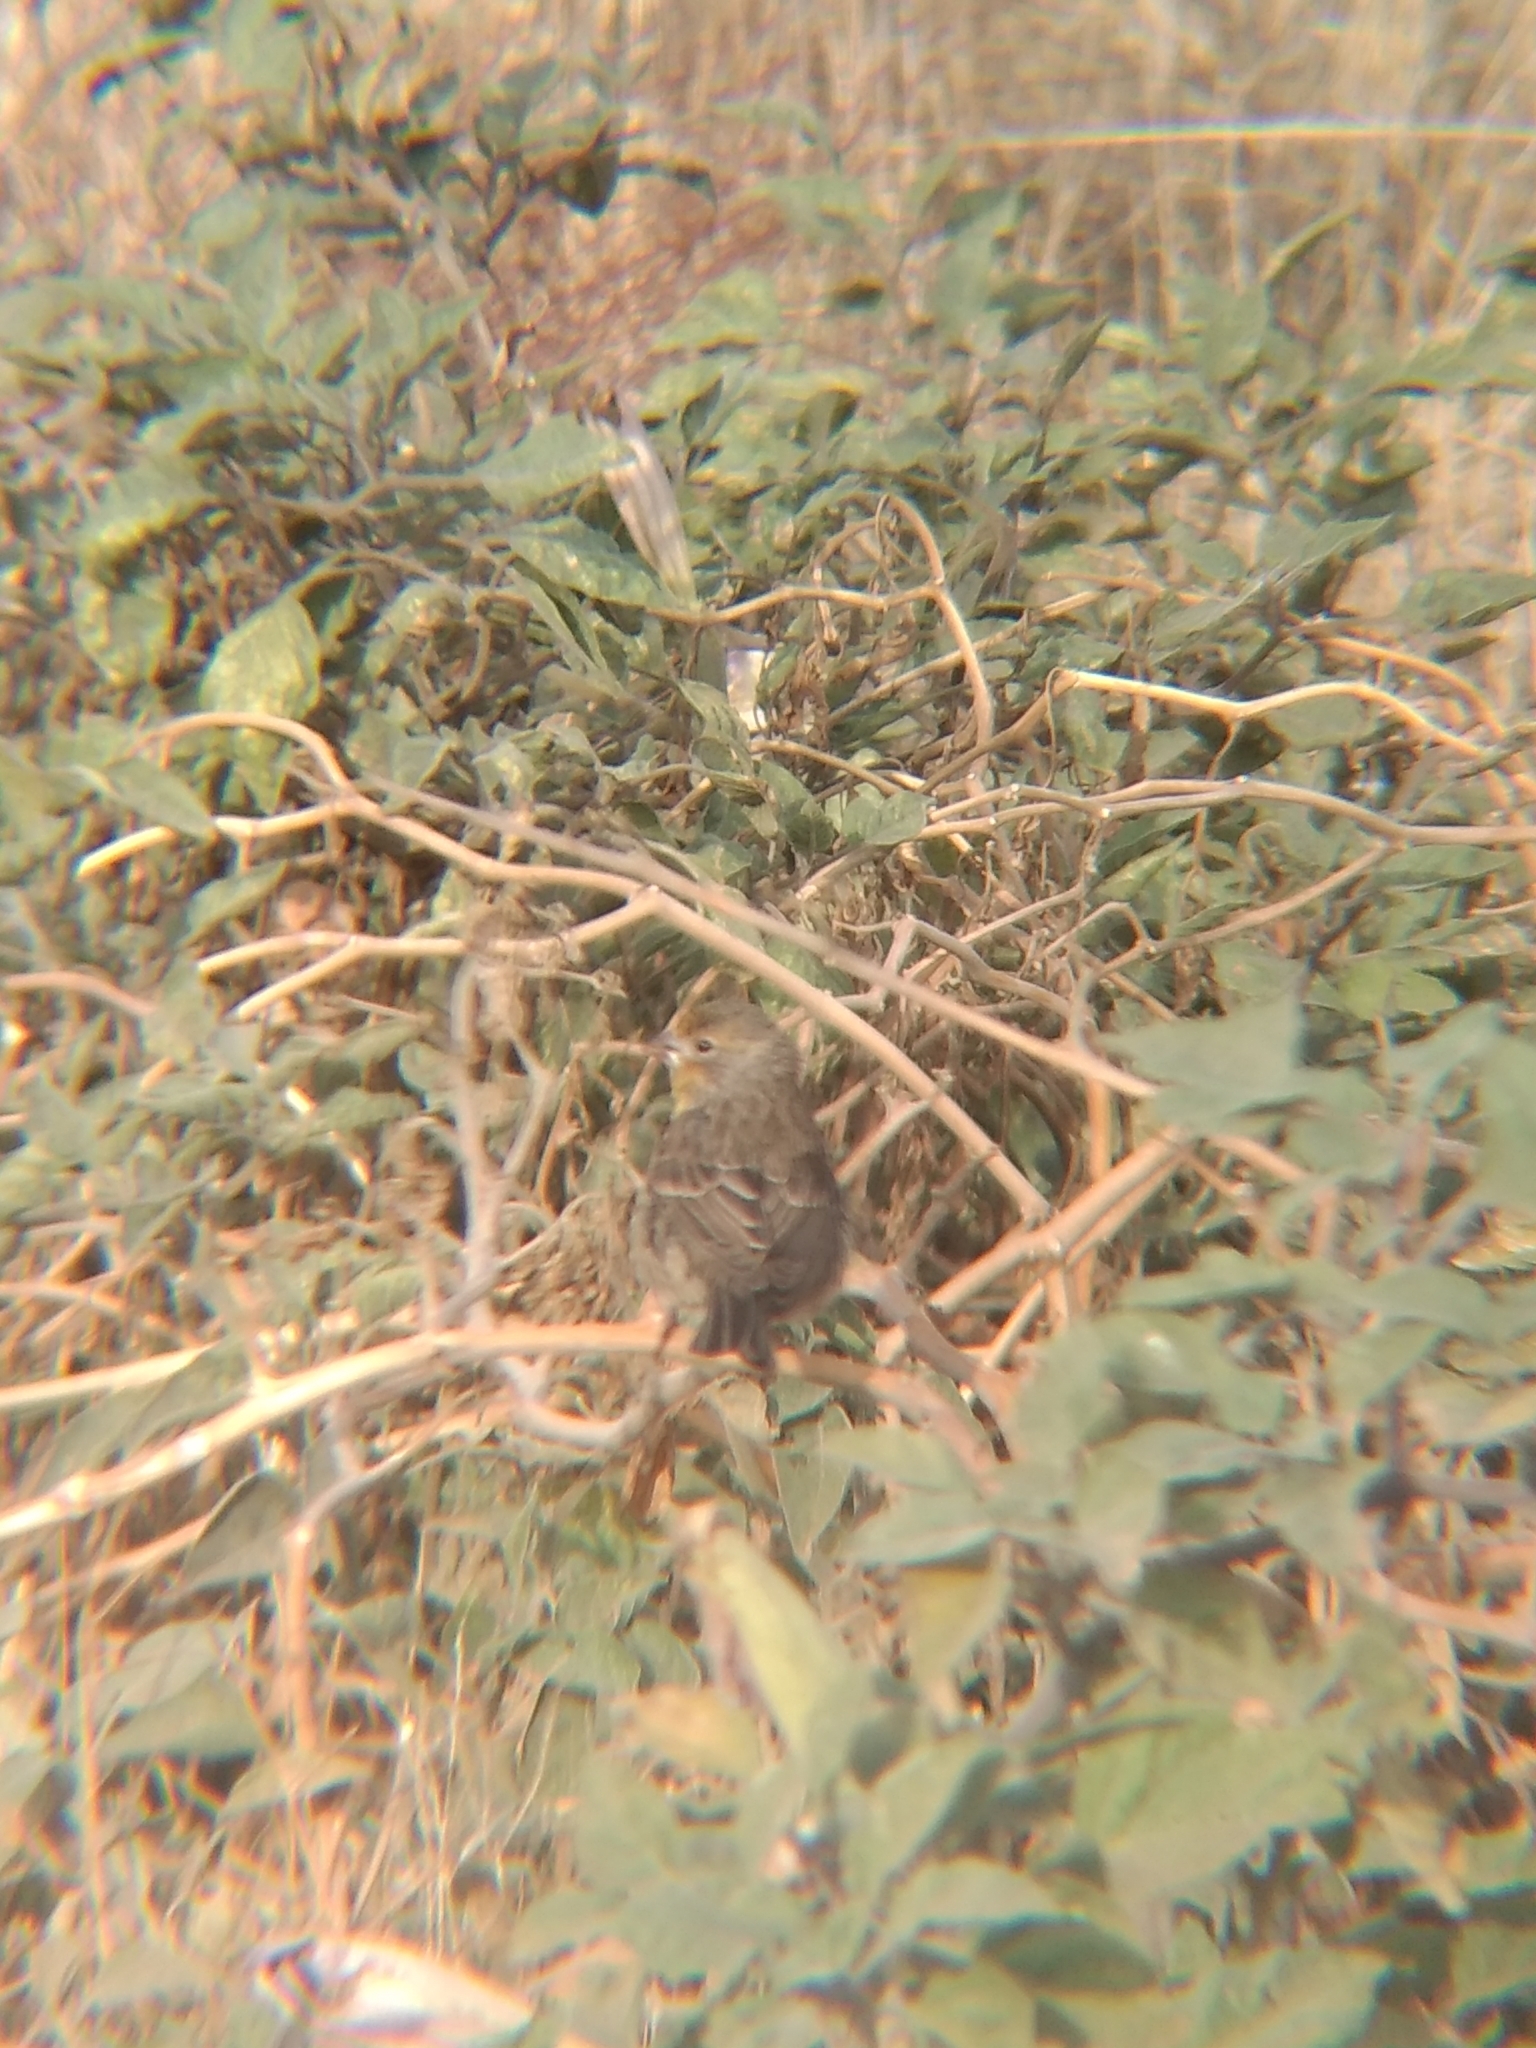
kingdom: Animalia
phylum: Chordata
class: Aves
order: Passeriformes
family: Fringillidae
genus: Haemorhous
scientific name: Haemorhous mexicanus
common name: House finch
